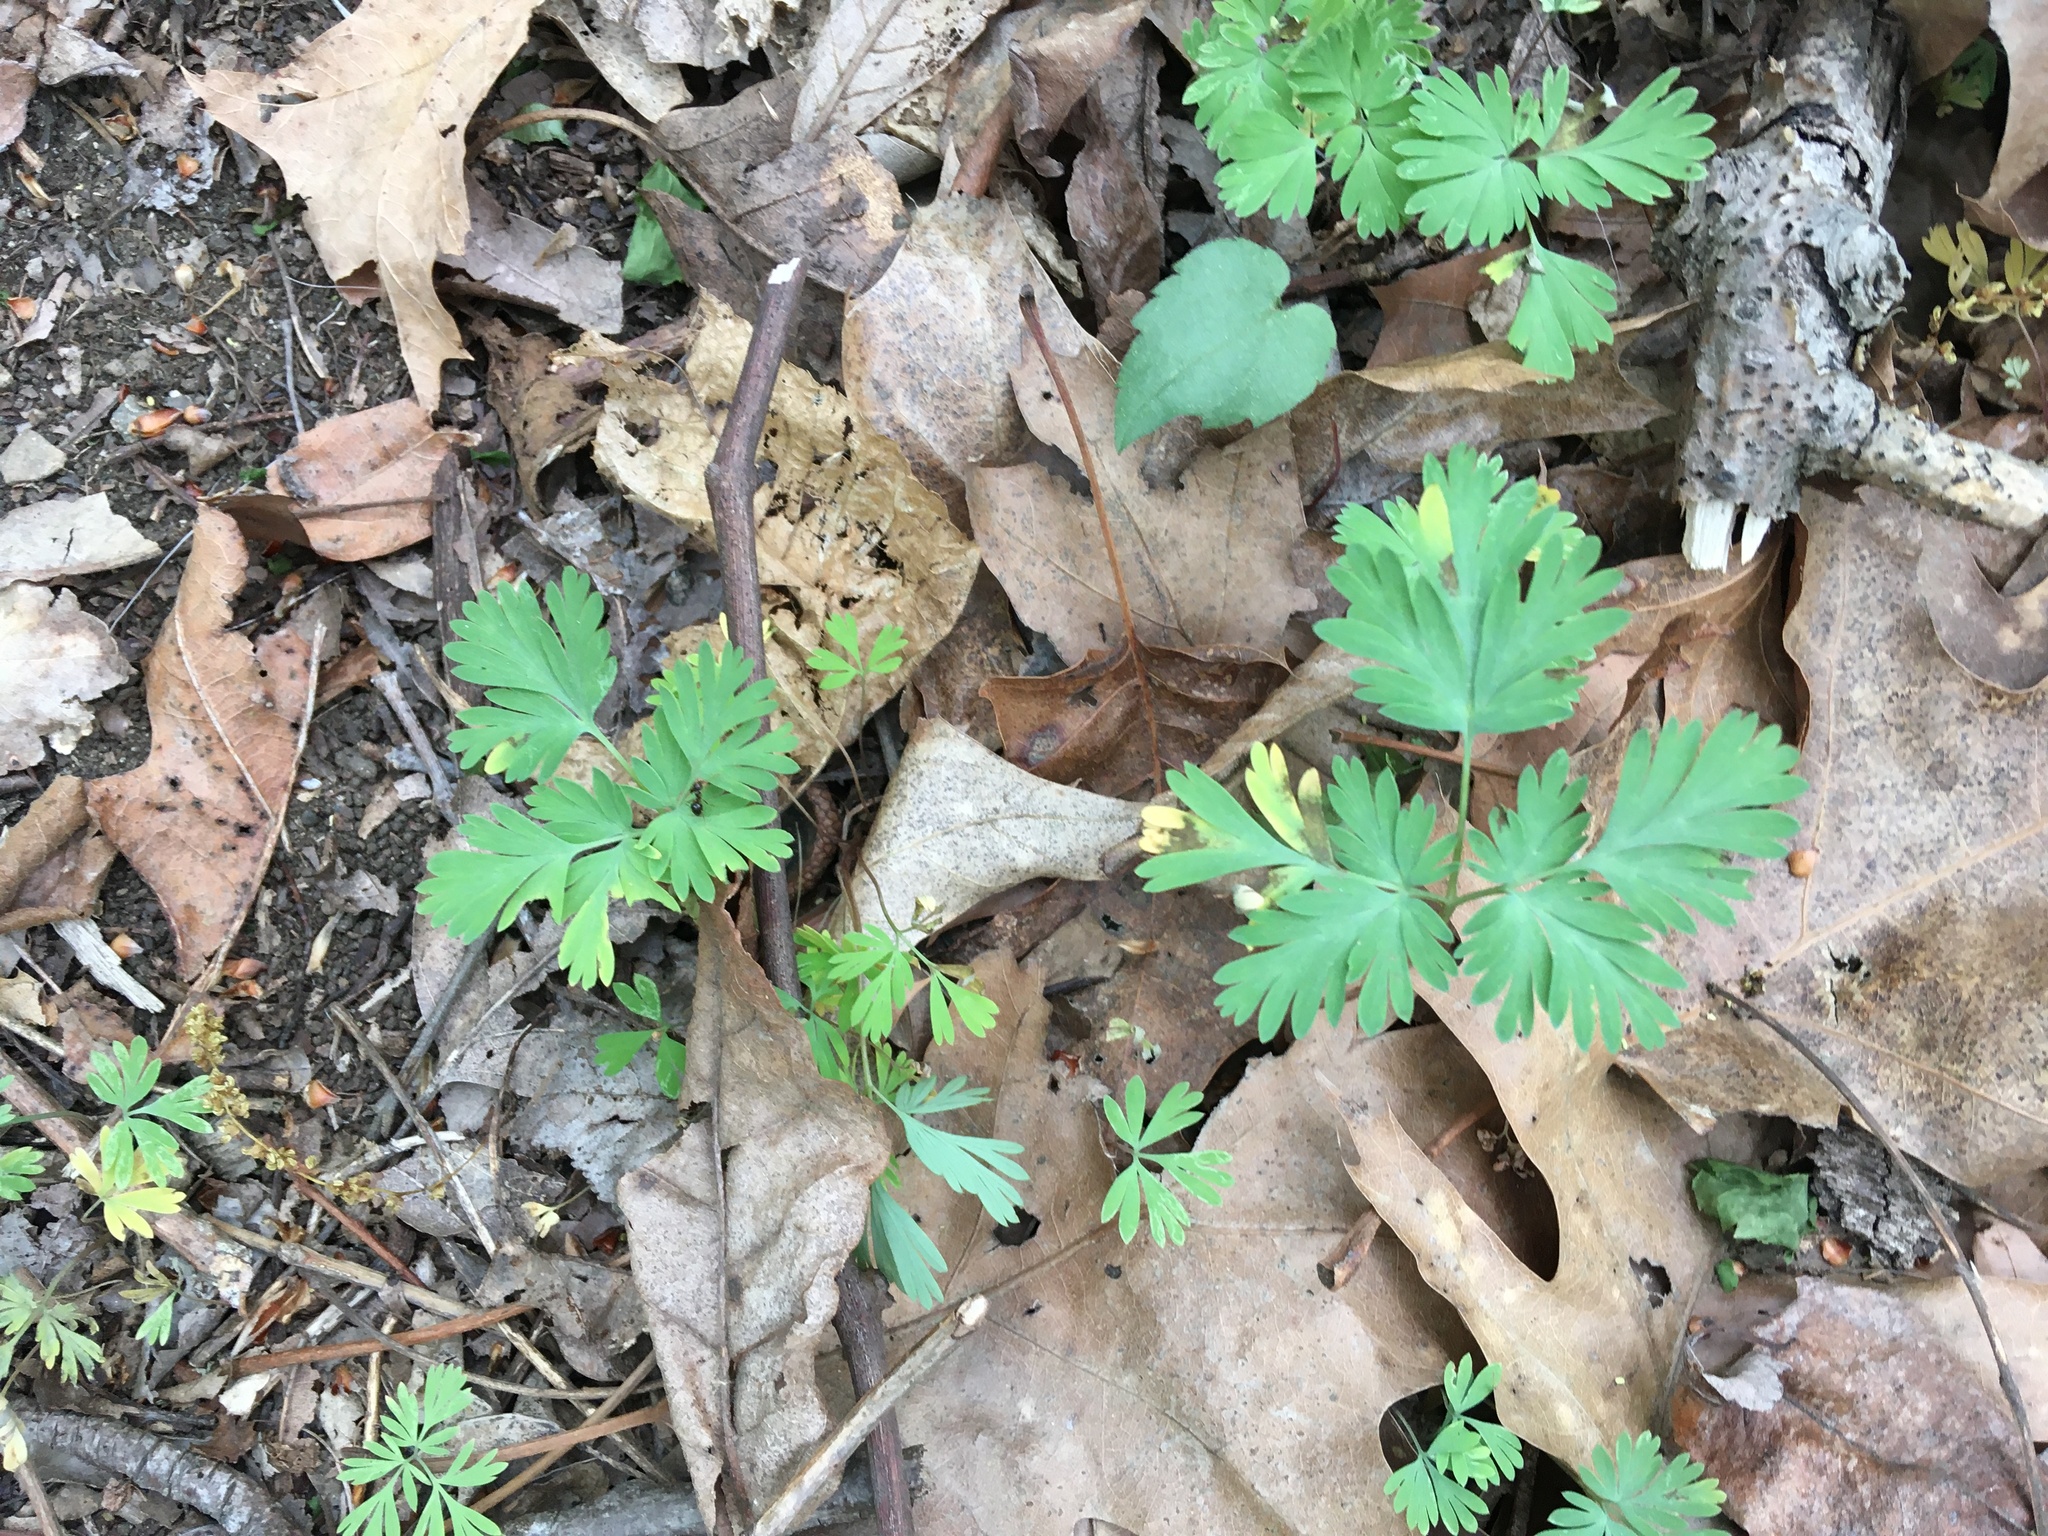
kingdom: Plantae
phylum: Tracheophyta
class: Magnoliopsida
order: Ranunculales
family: Papaveraceae
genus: Dicentra
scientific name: Dicentra cucullaria
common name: Dutchman's breeches
